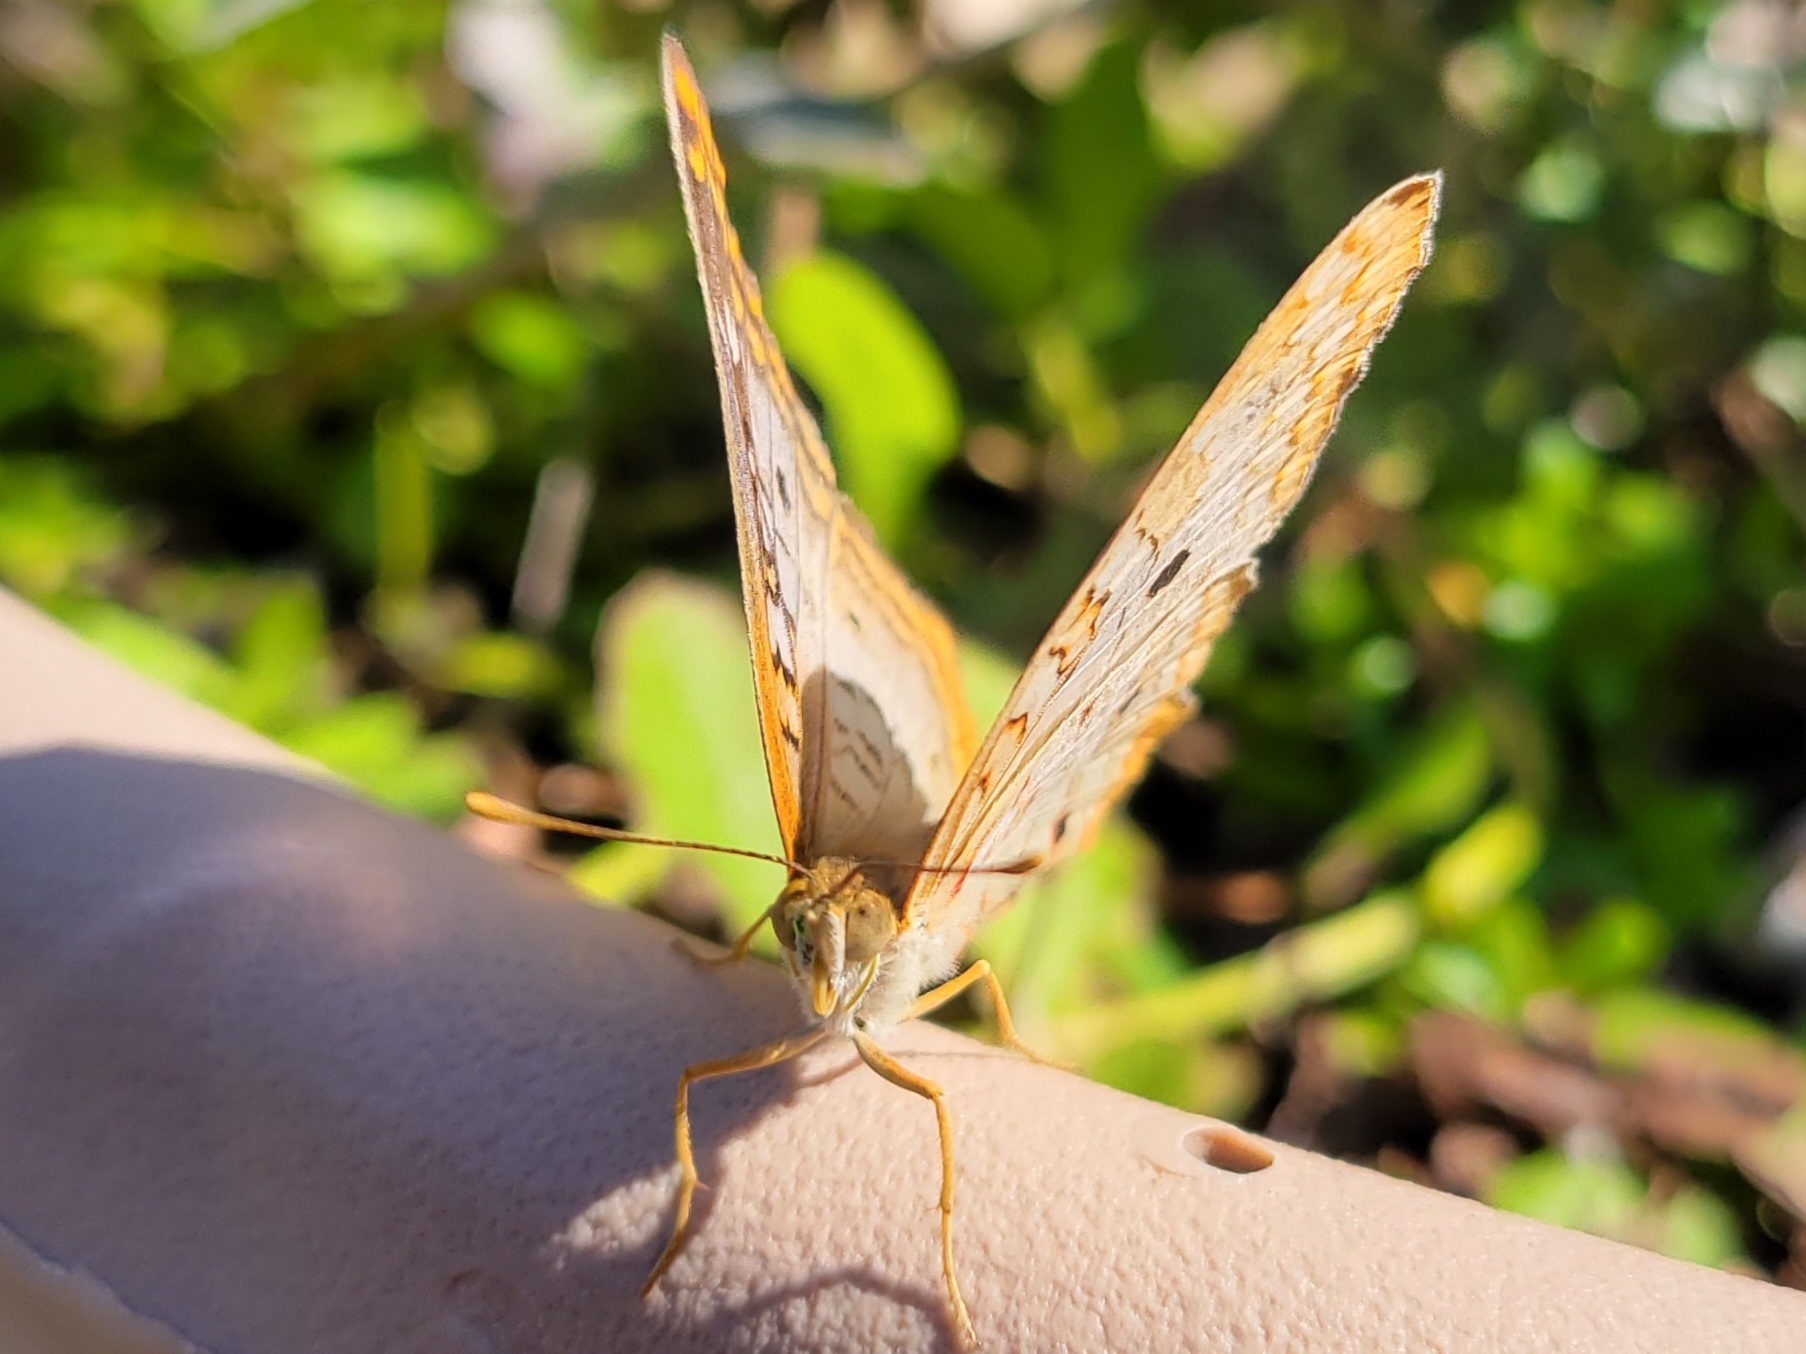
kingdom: Animalia
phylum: Arthropoda
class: Insecta
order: Lepidoptera
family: Nymphalidae
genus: Anartia
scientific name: Anartia jatrophae
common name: White peacock
